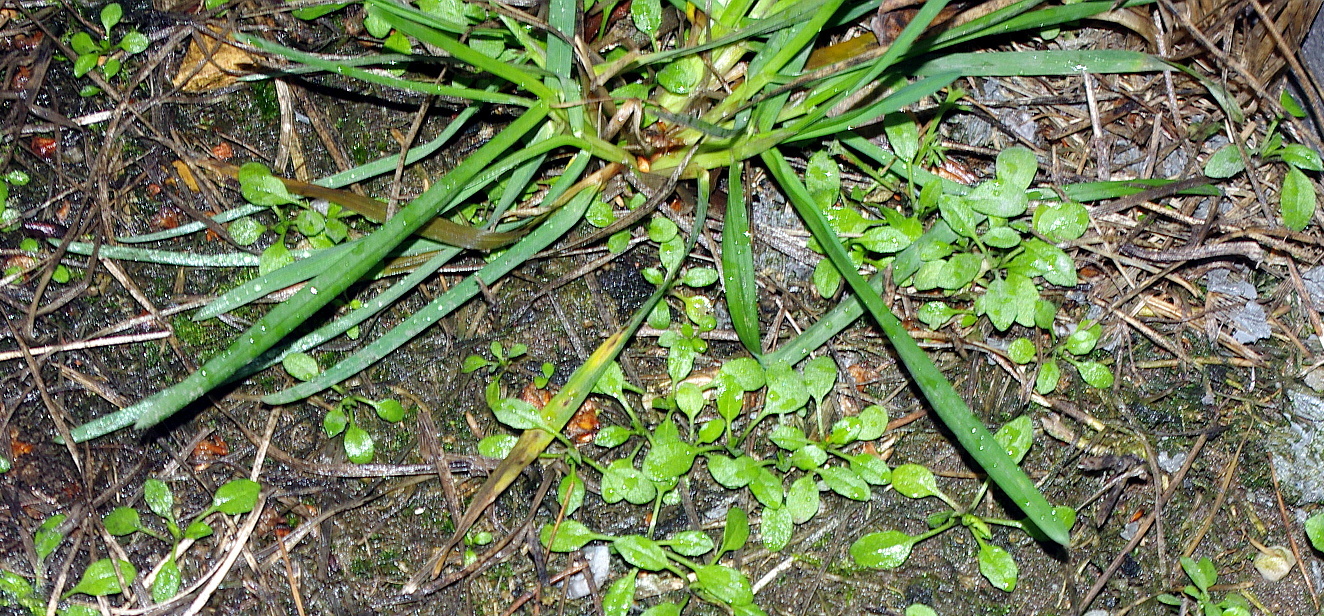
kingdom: Plantae
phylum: Tracheophyta
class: Liliopsida
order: Poales
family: Poaceae
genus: Dactylis
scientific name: Dactylis glomerata
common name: Orchardgrass
